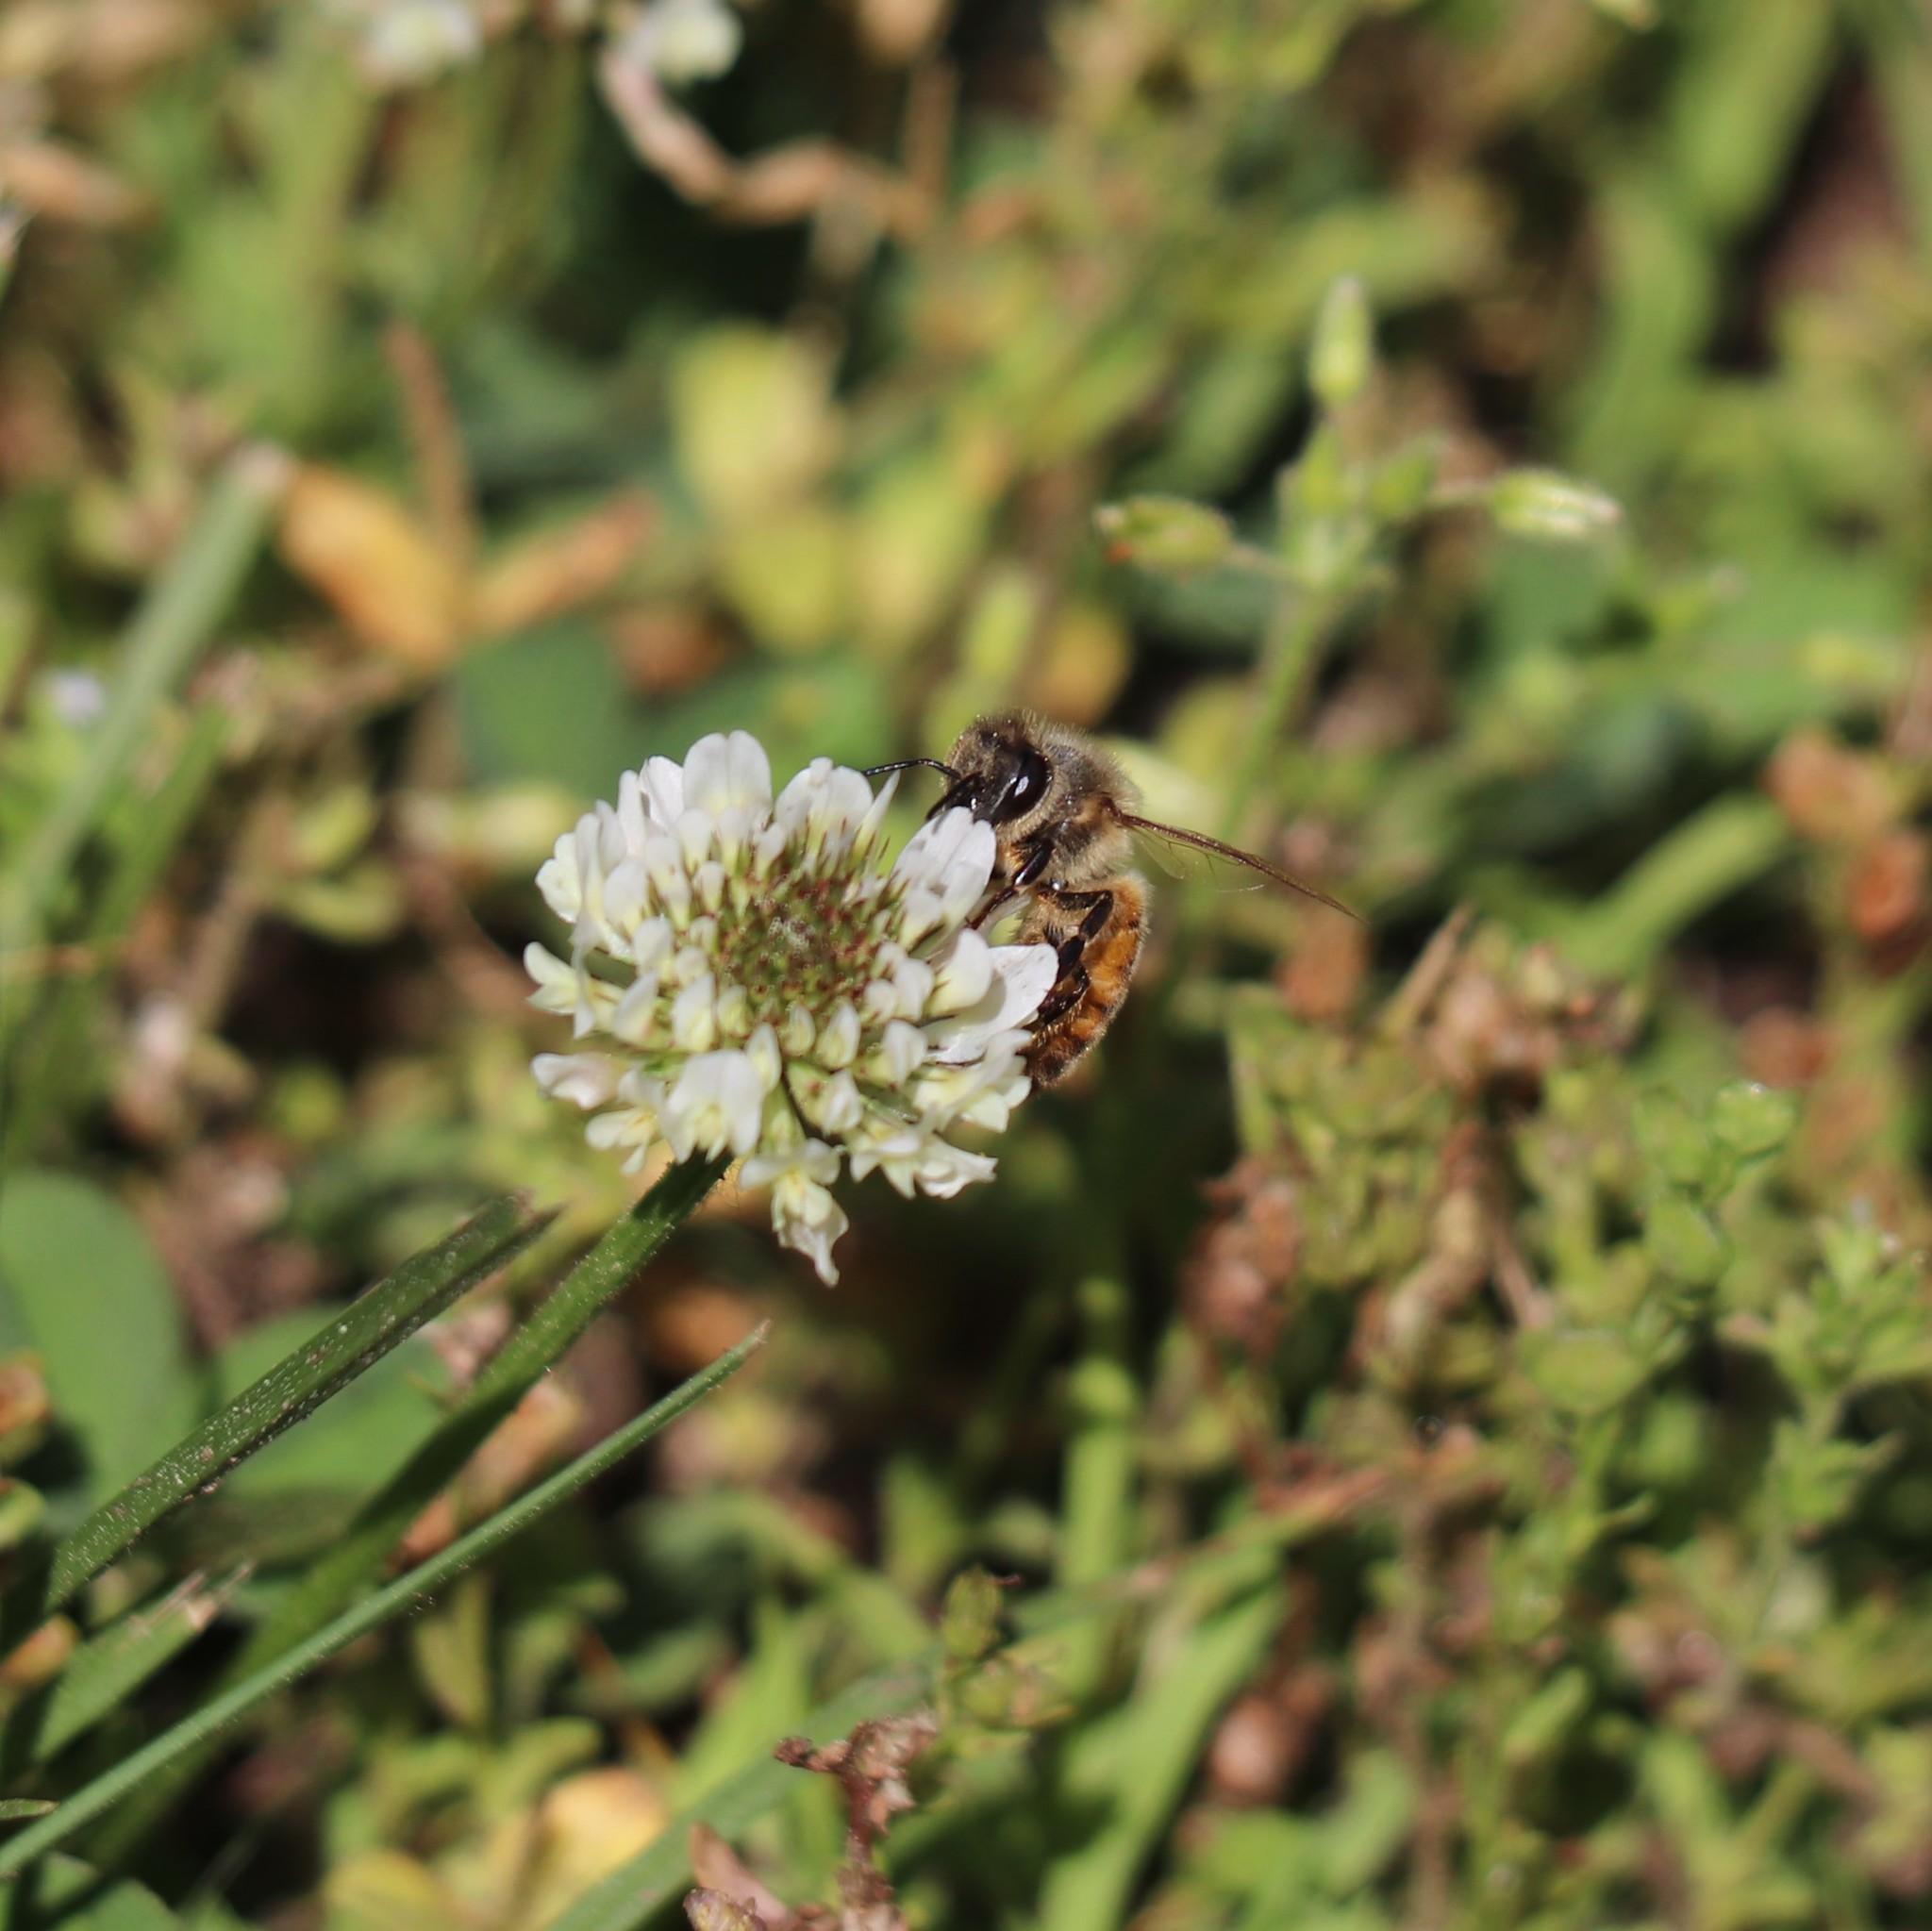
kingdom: Animalia
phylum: Arthropoda
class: Insecta
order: Hymenoptera
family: Apidae
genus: Apis
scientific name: Apis mellifera
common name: Honey bee
